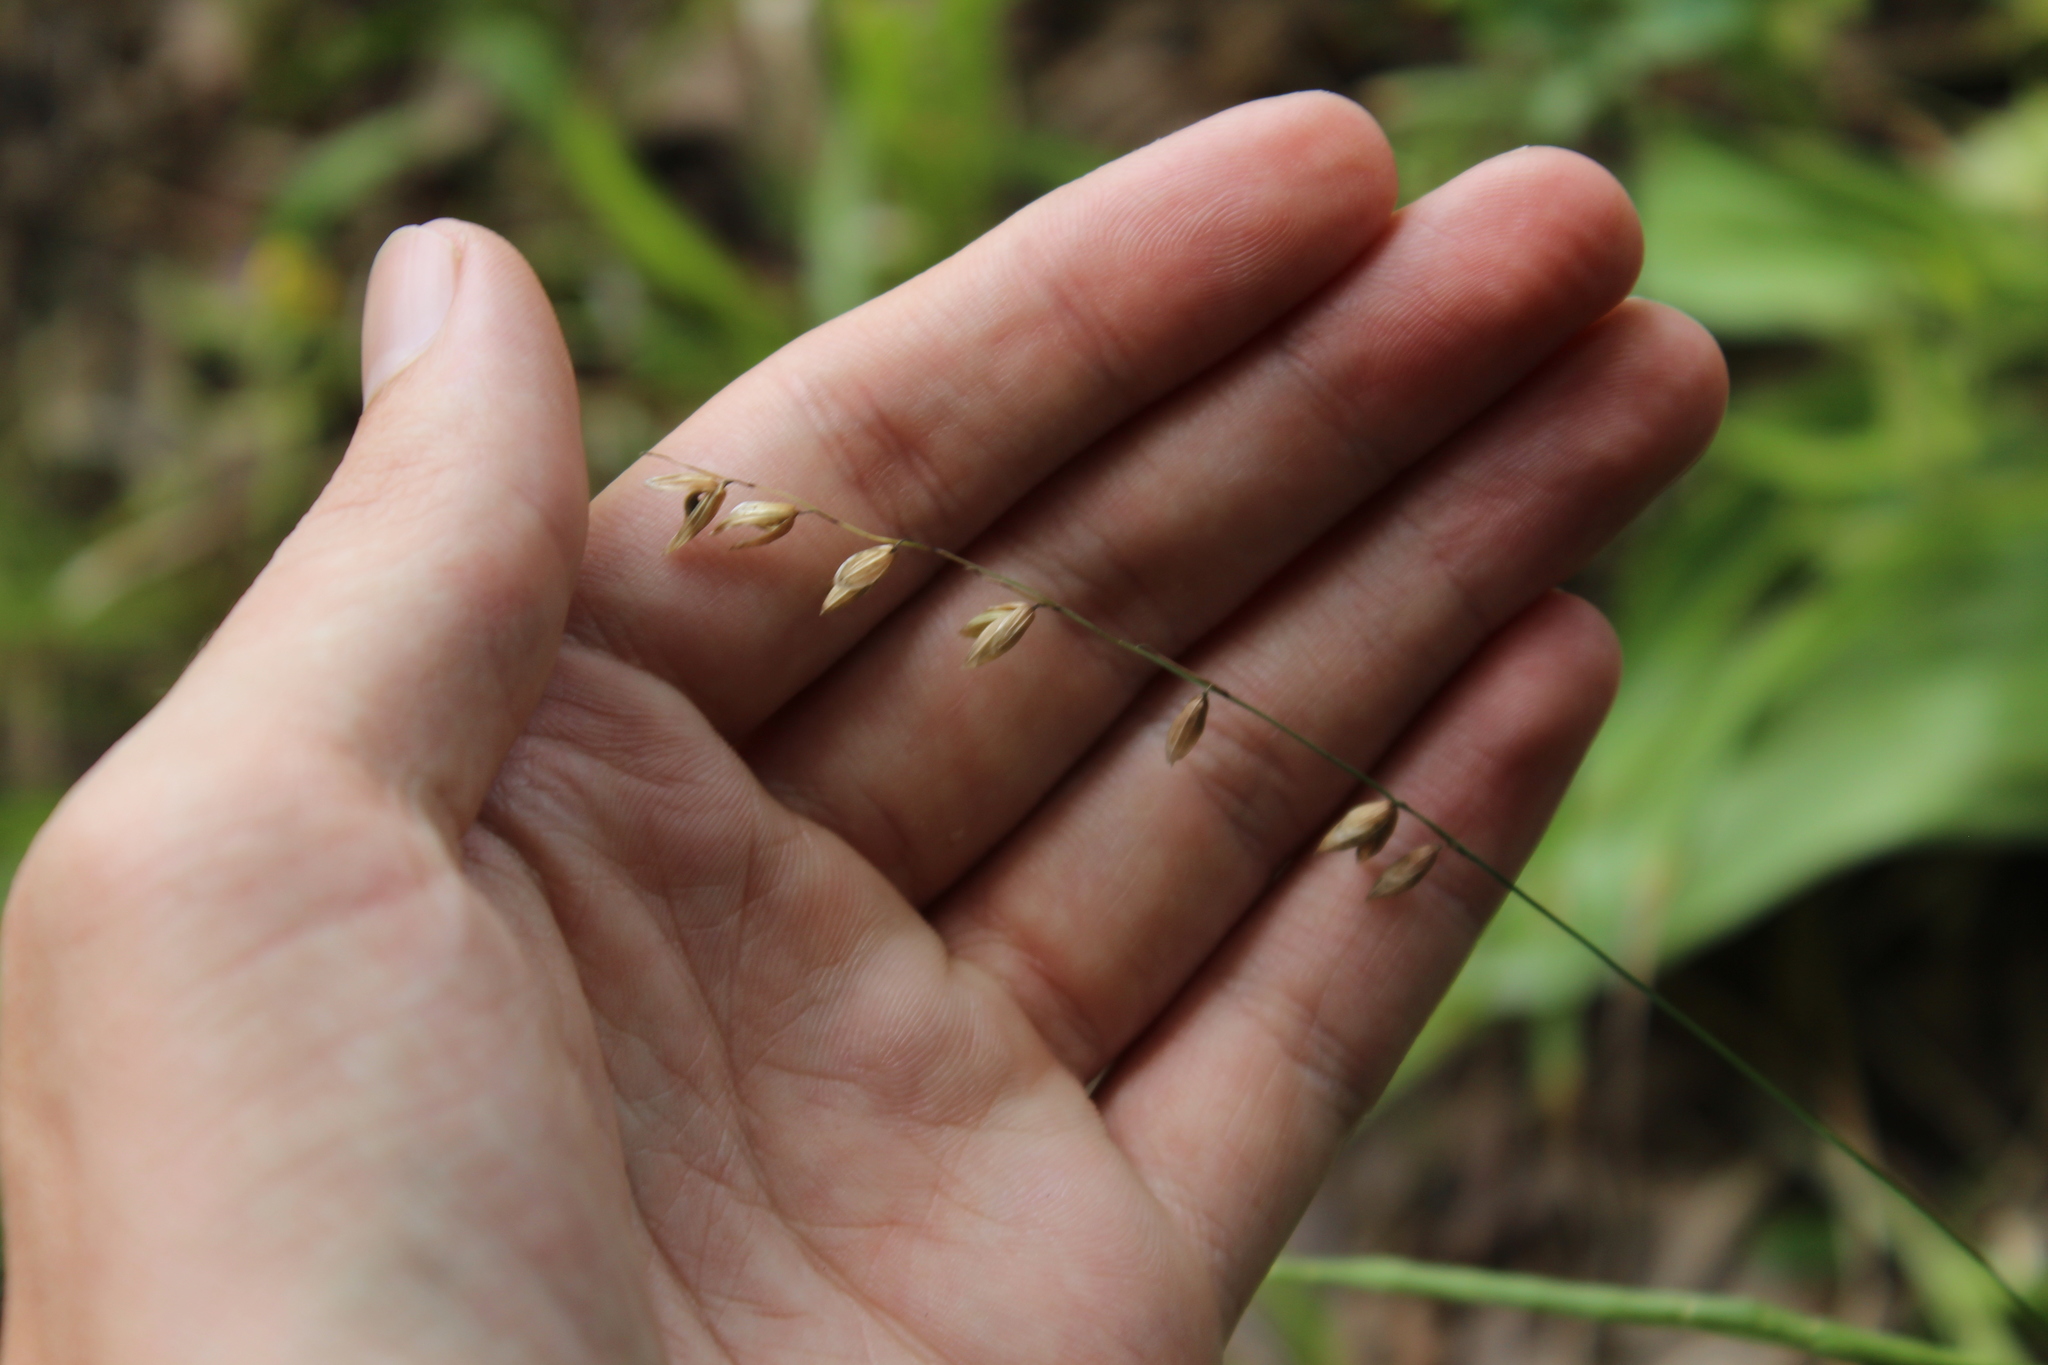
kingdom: Plantae
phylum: Tracheophyta
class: Liliopsida
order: Poales
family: Poaceae
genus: Melica
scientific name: Melica nutans
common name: Mountain melick
